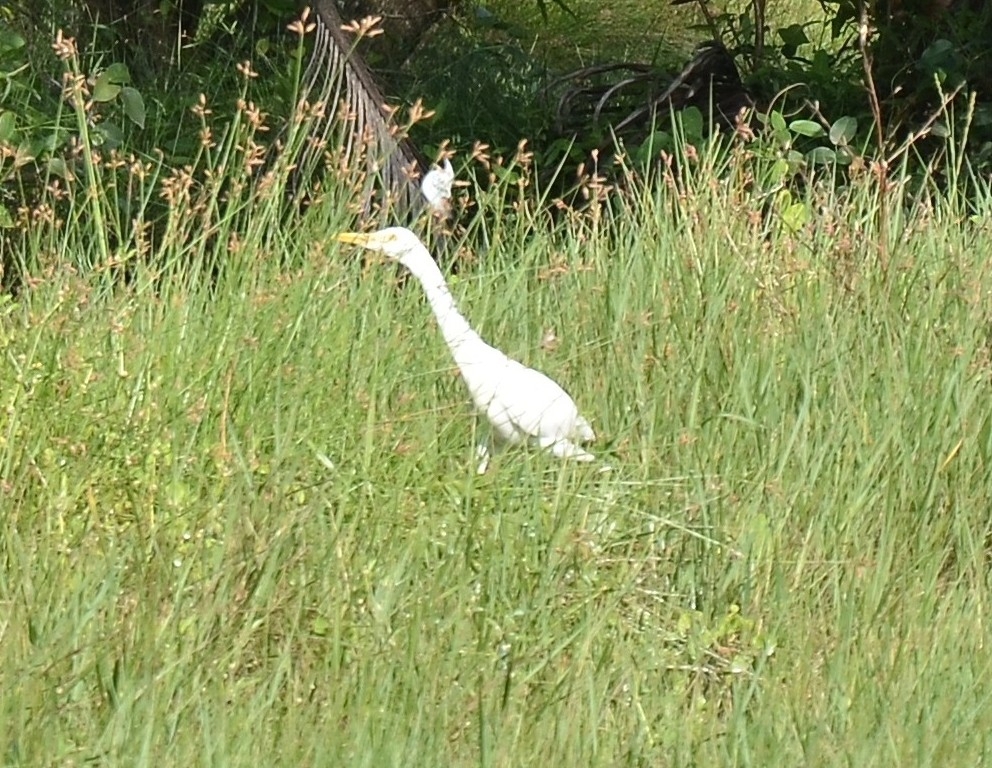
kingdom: Animalia
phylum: Chordata
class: Aves
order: Pelecaniformes
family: Ardeidae
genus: Bubulcus
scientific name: Bubulcus coromandus
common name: Eastern cattle egret
